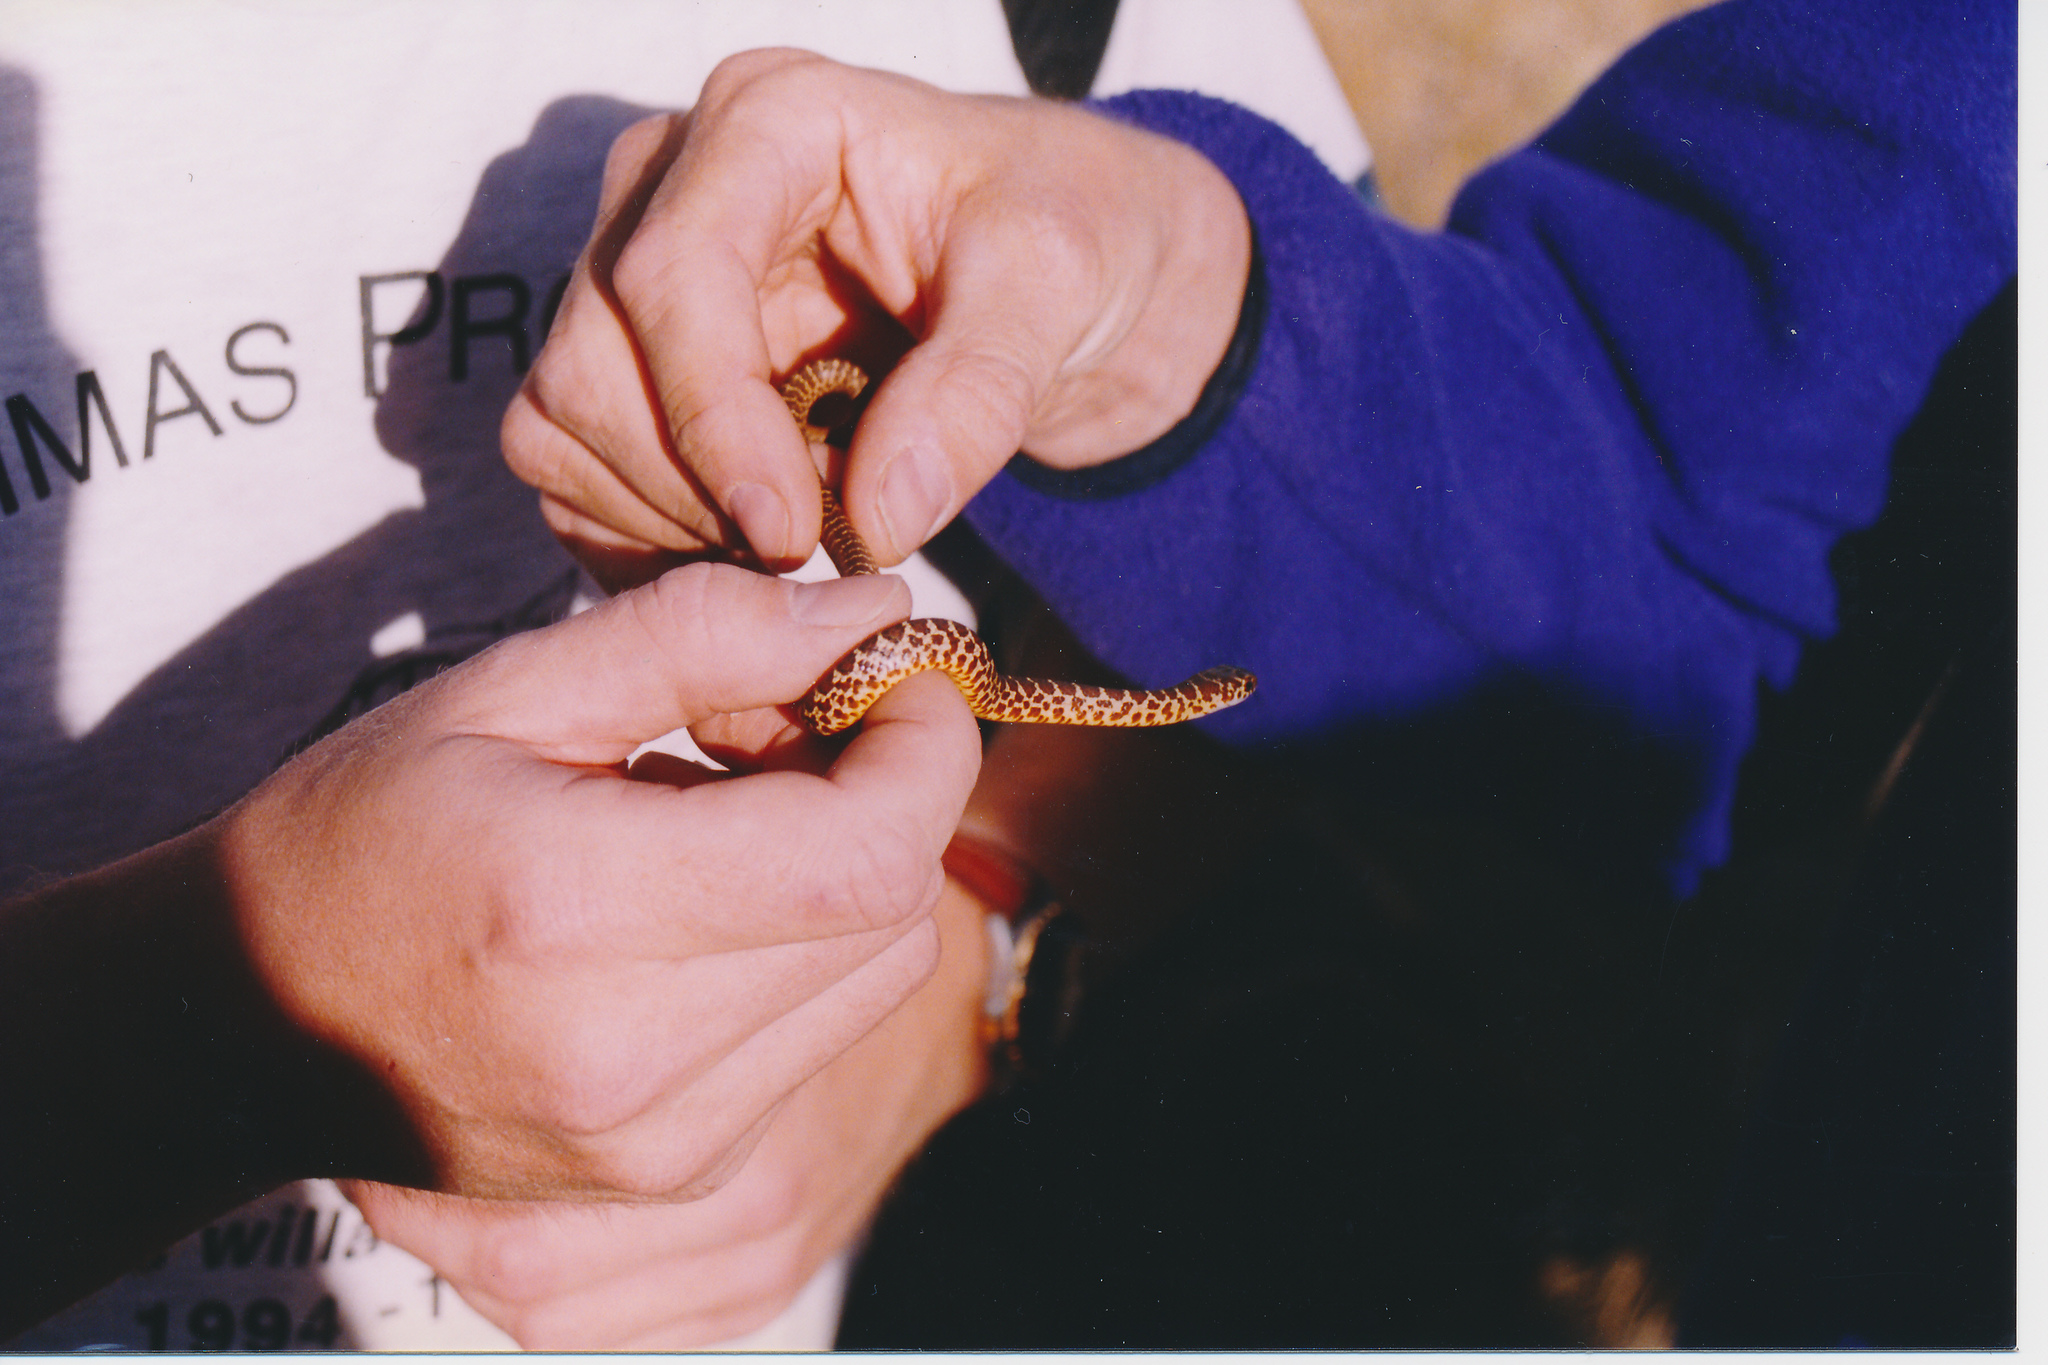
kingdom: Animalia
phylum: Chordata
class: Squamata
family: Colubridae
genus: Coluber
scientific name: Coluber constrictor
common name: Eastern racer
